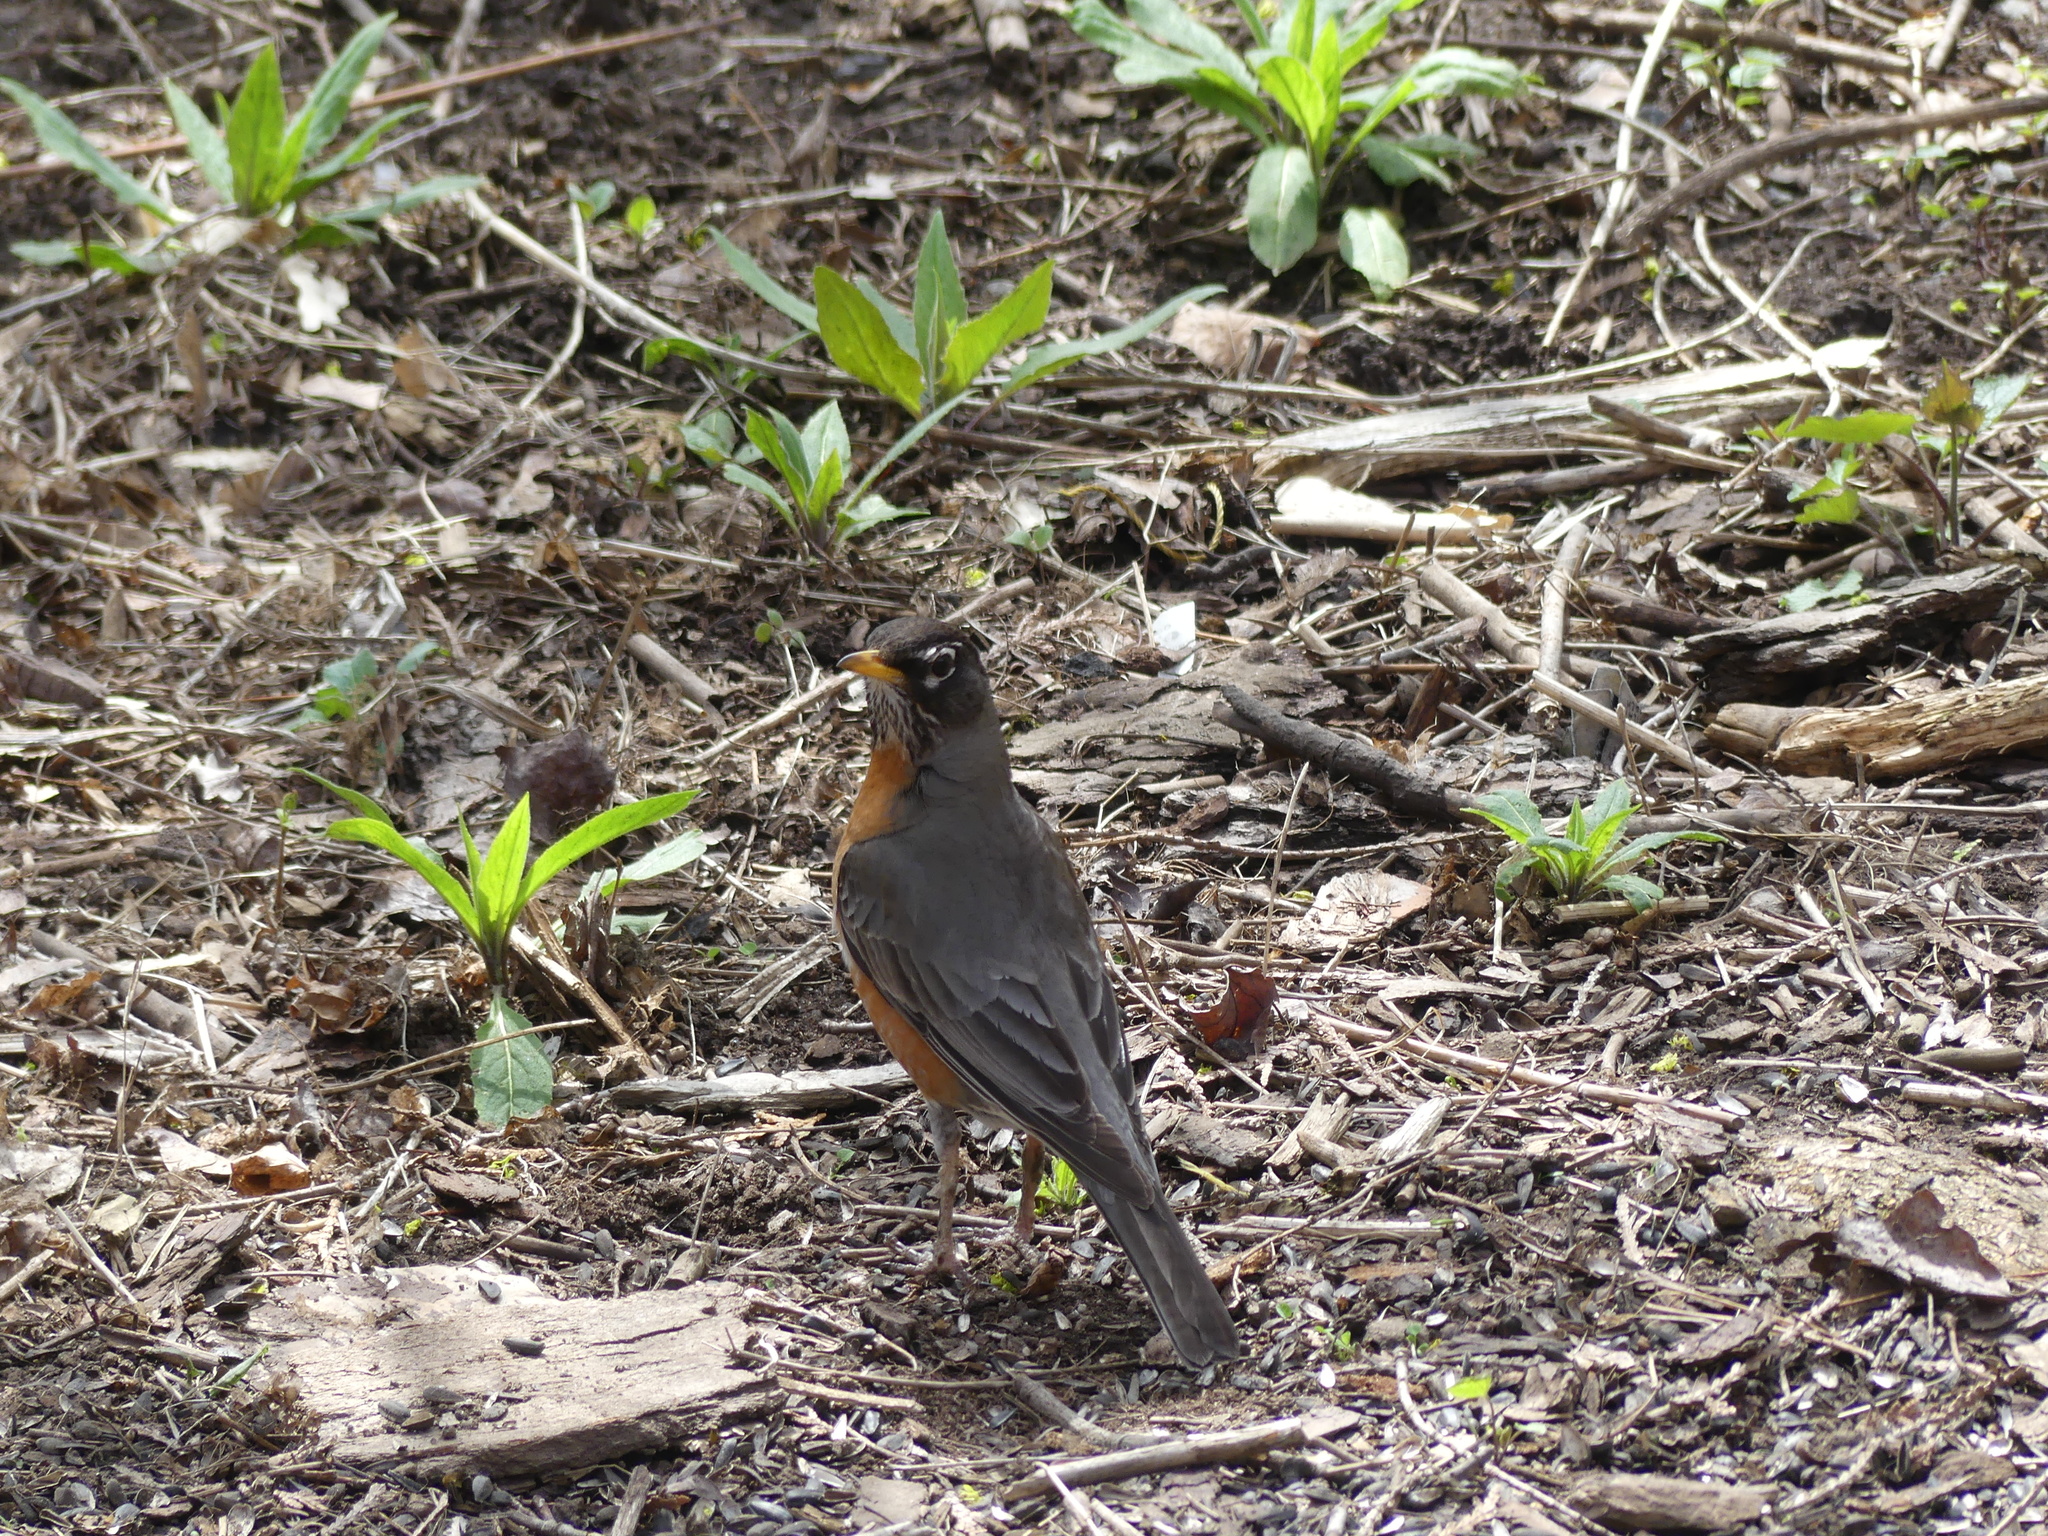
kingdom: Animalia
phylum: Chordata
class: Aves
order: Passeriformes
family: Turdidae
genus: Turdus
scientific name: Turdus migratorius
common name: American robin
